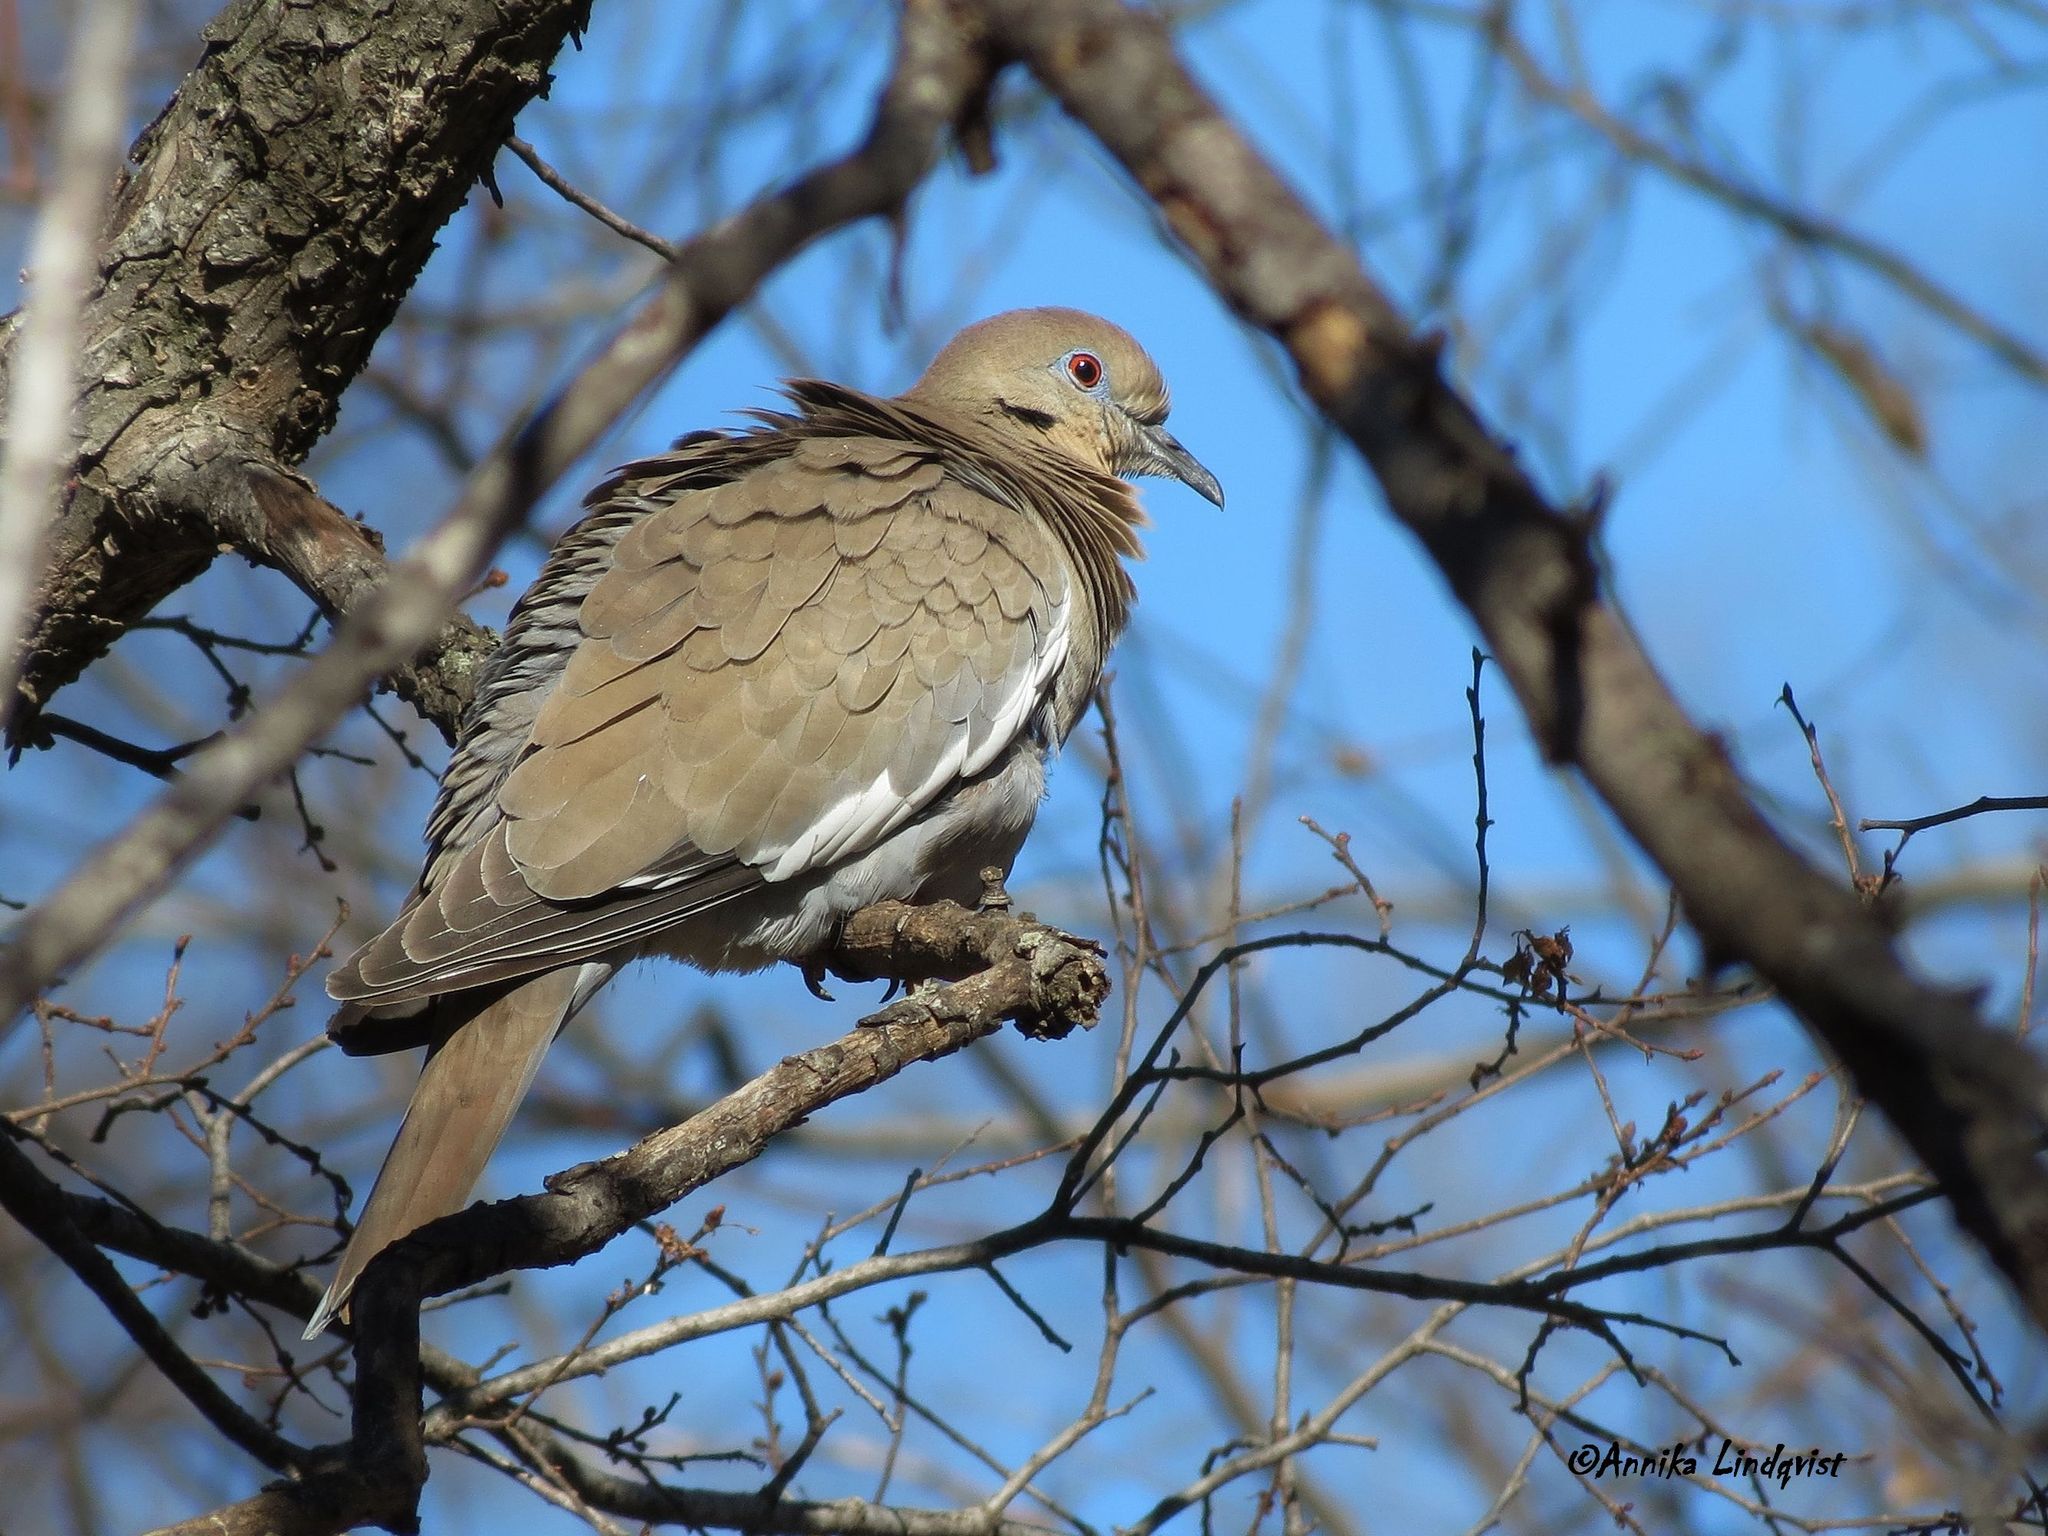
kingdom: Animalia
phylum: Chordata
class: Aves
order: Columbiformes
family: Columbidae
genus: Zenaida
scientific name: Zenaida asiatica
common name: White-winged dove
